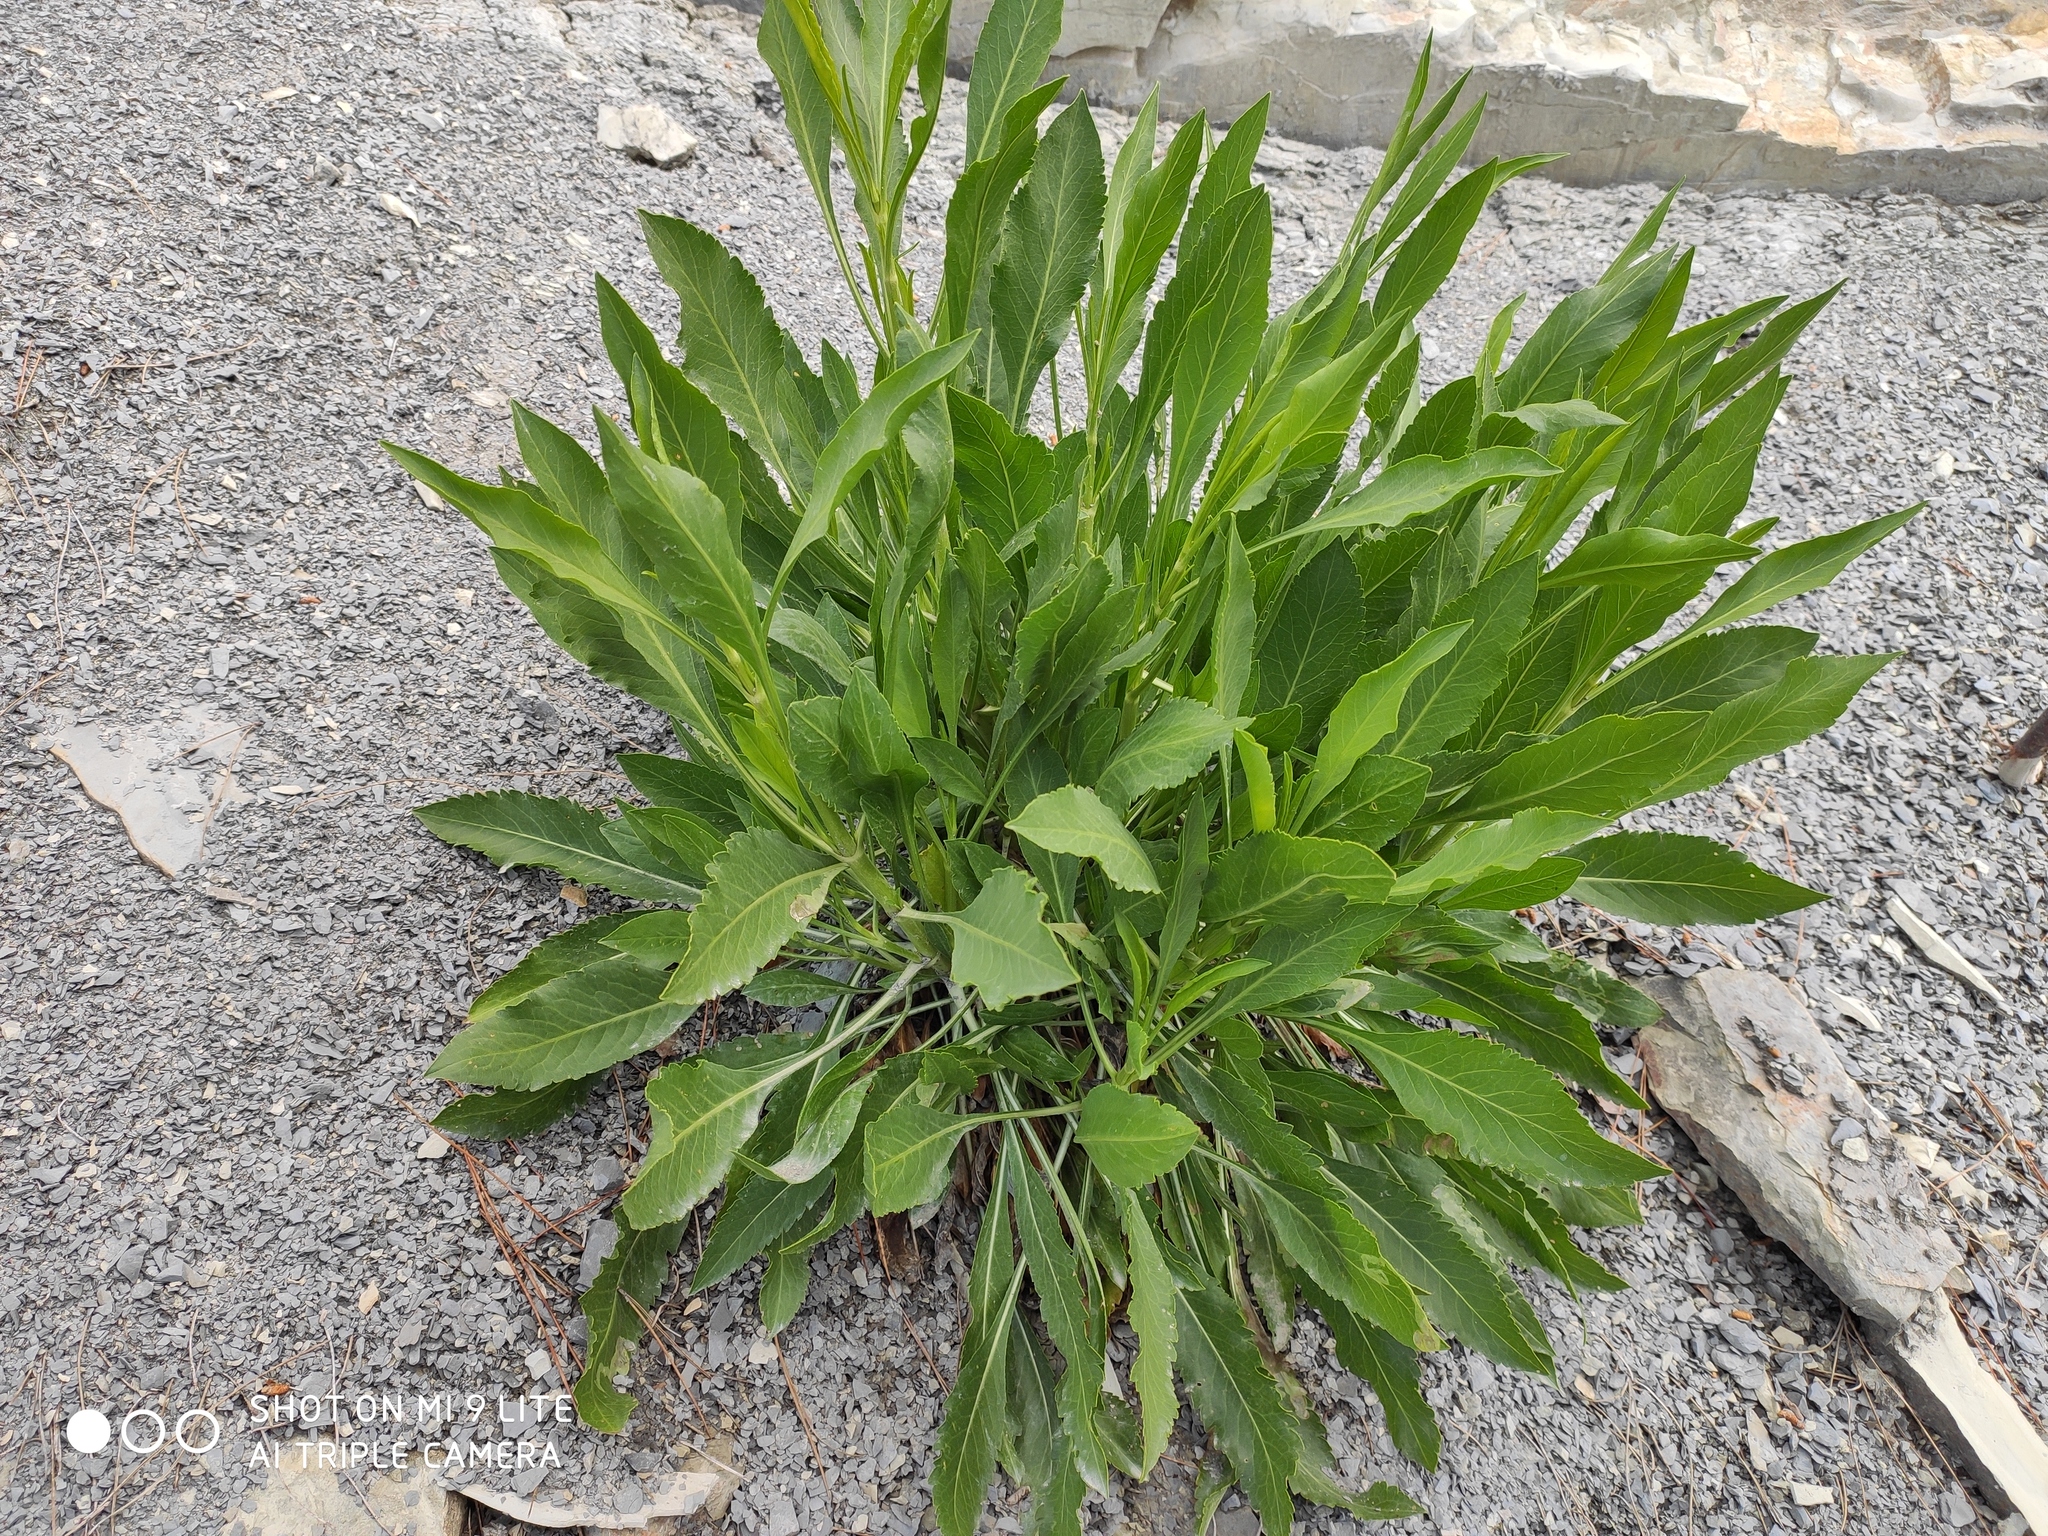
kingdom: Plantae
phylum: Tracheophyta
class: Magnoliopsida
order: Dipsacales
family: Caprifoliaceae
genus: Cephalaria
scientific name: Cephalaria coriacea
